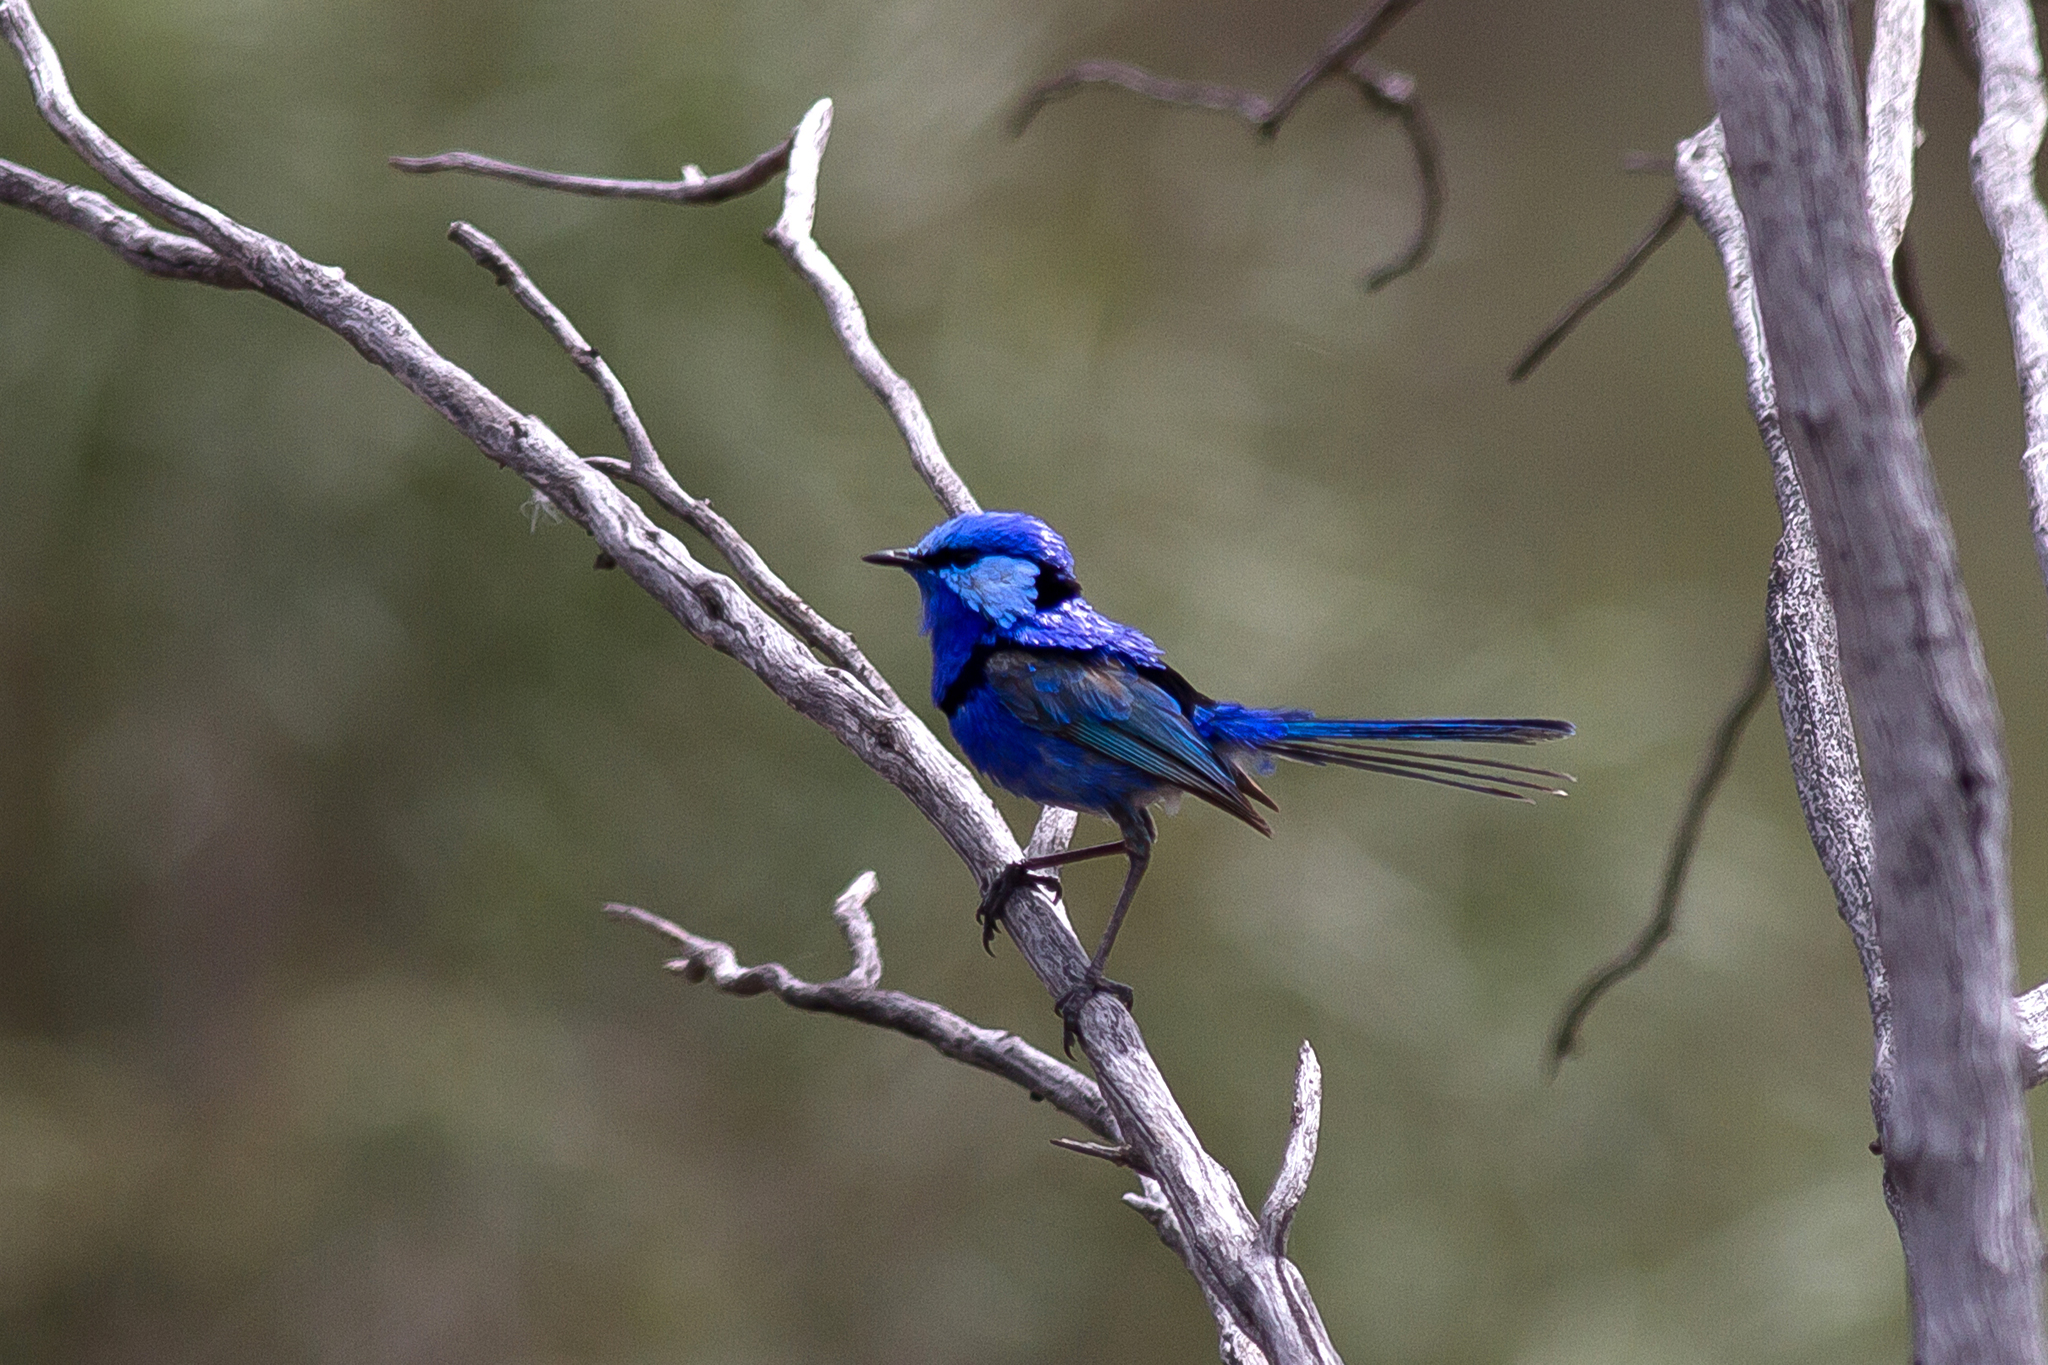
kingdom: Animalia
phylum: Chordata
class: Aves
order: Passeriformes
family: Maluridae
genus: Malurus
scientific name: Malurus splendens
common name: Splendid fairywren
